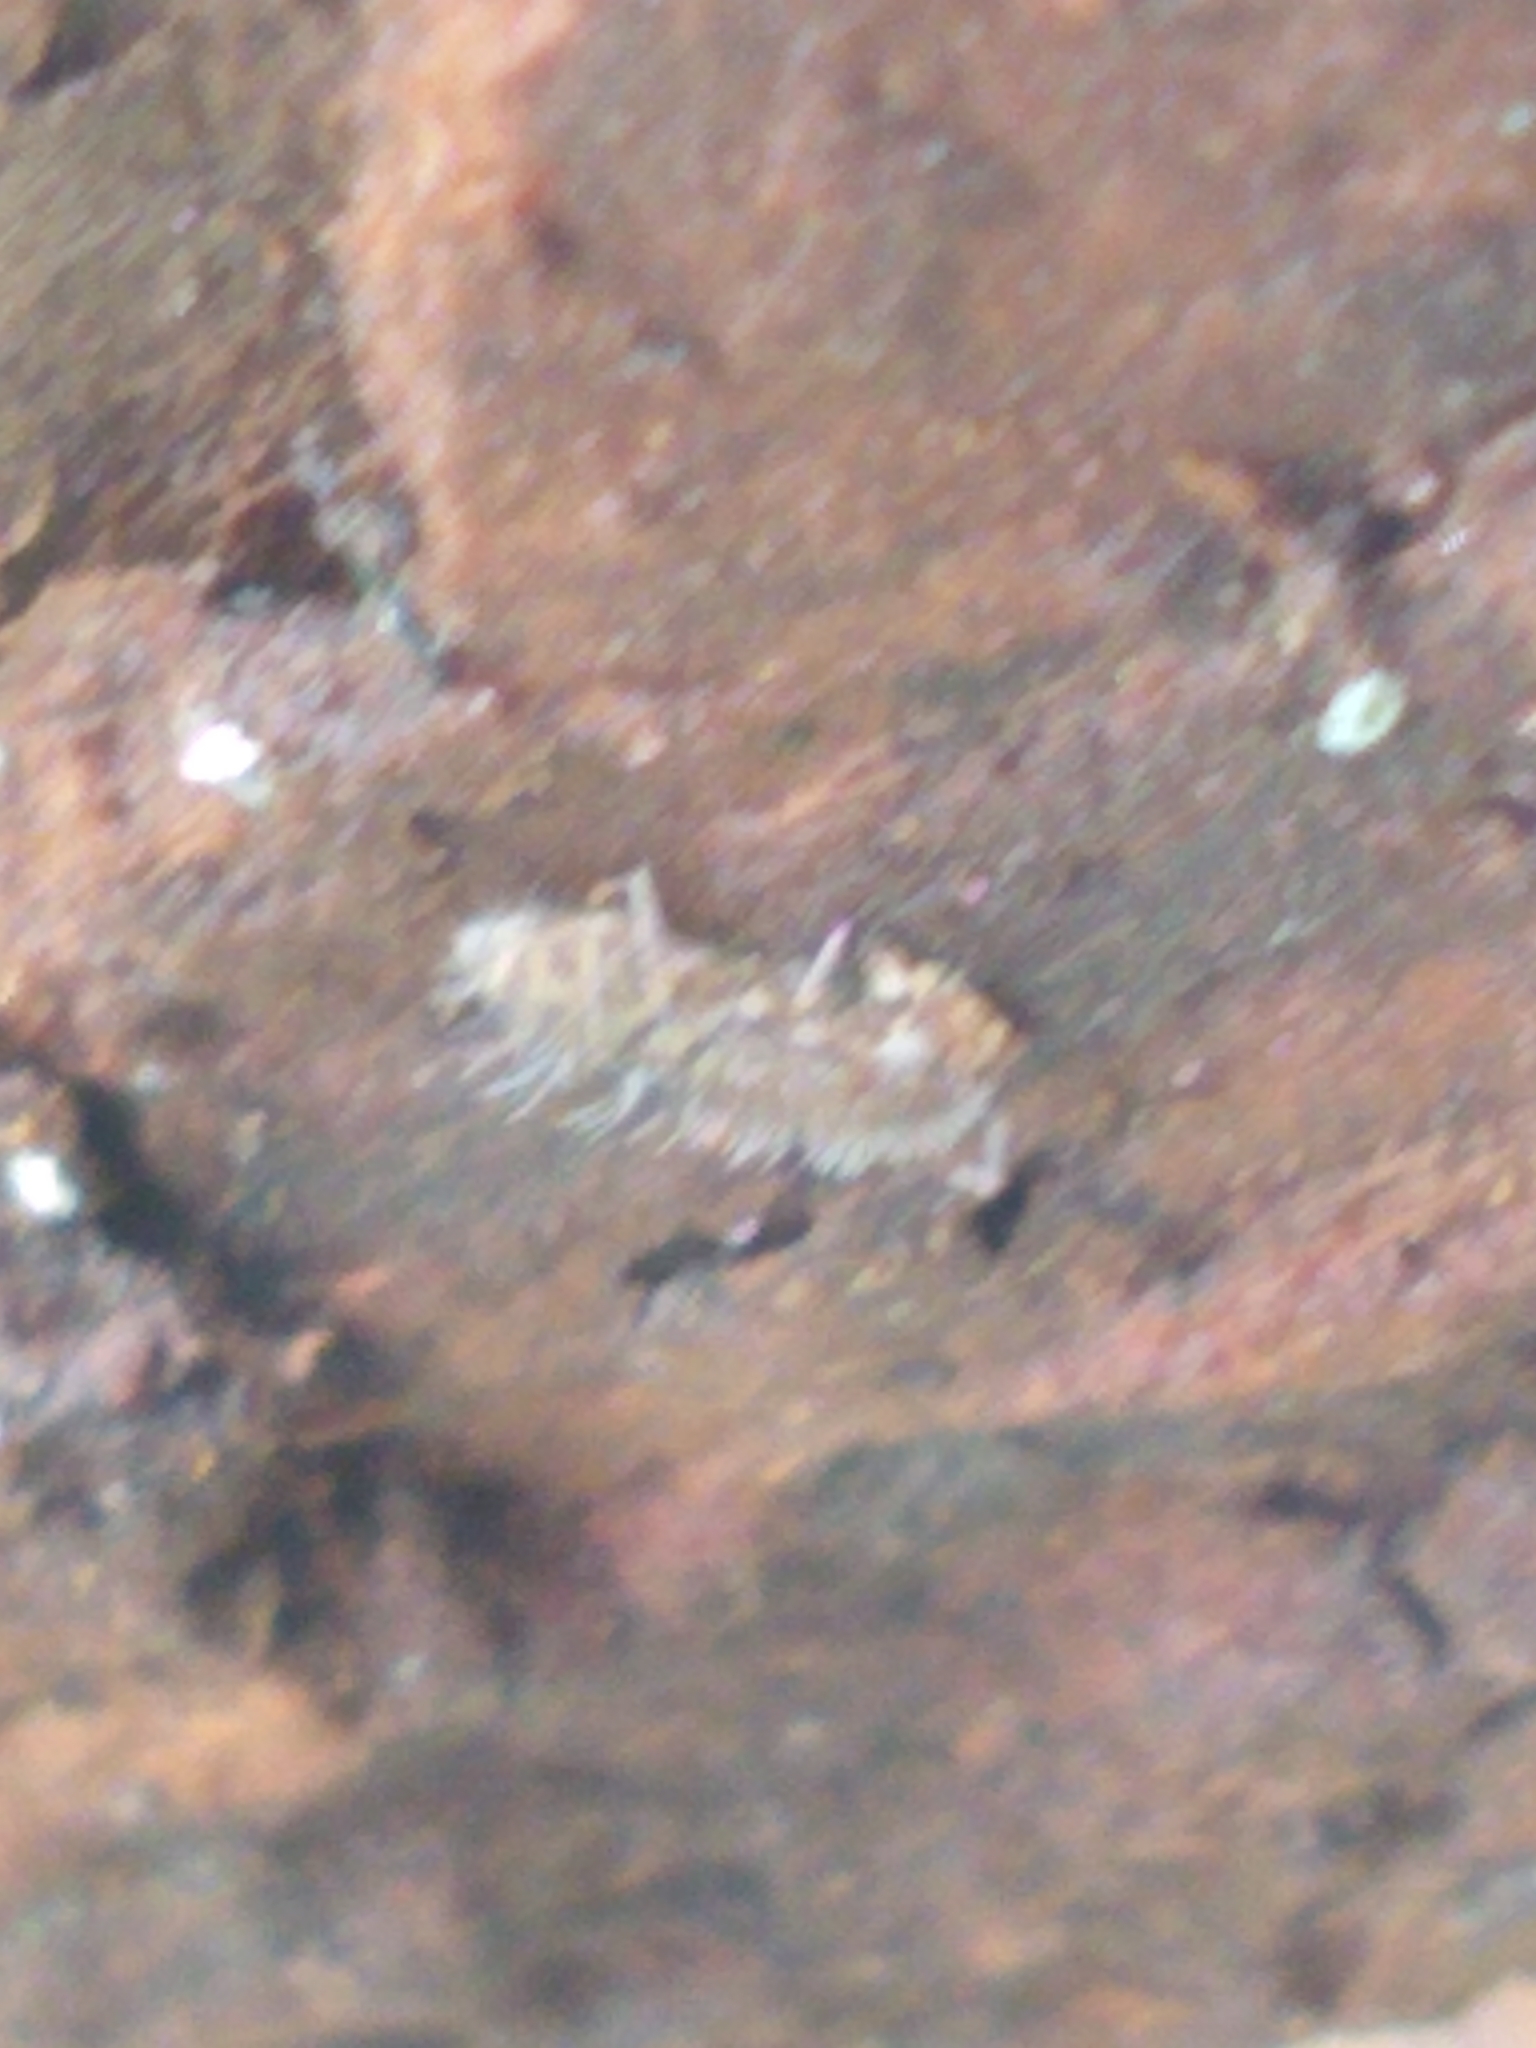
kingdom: Animalia
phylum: Arthropoda
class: Collembola
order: Entomobryomorpha
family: Orchesellidae
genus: Orchesella
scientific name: Orchesella villosa
